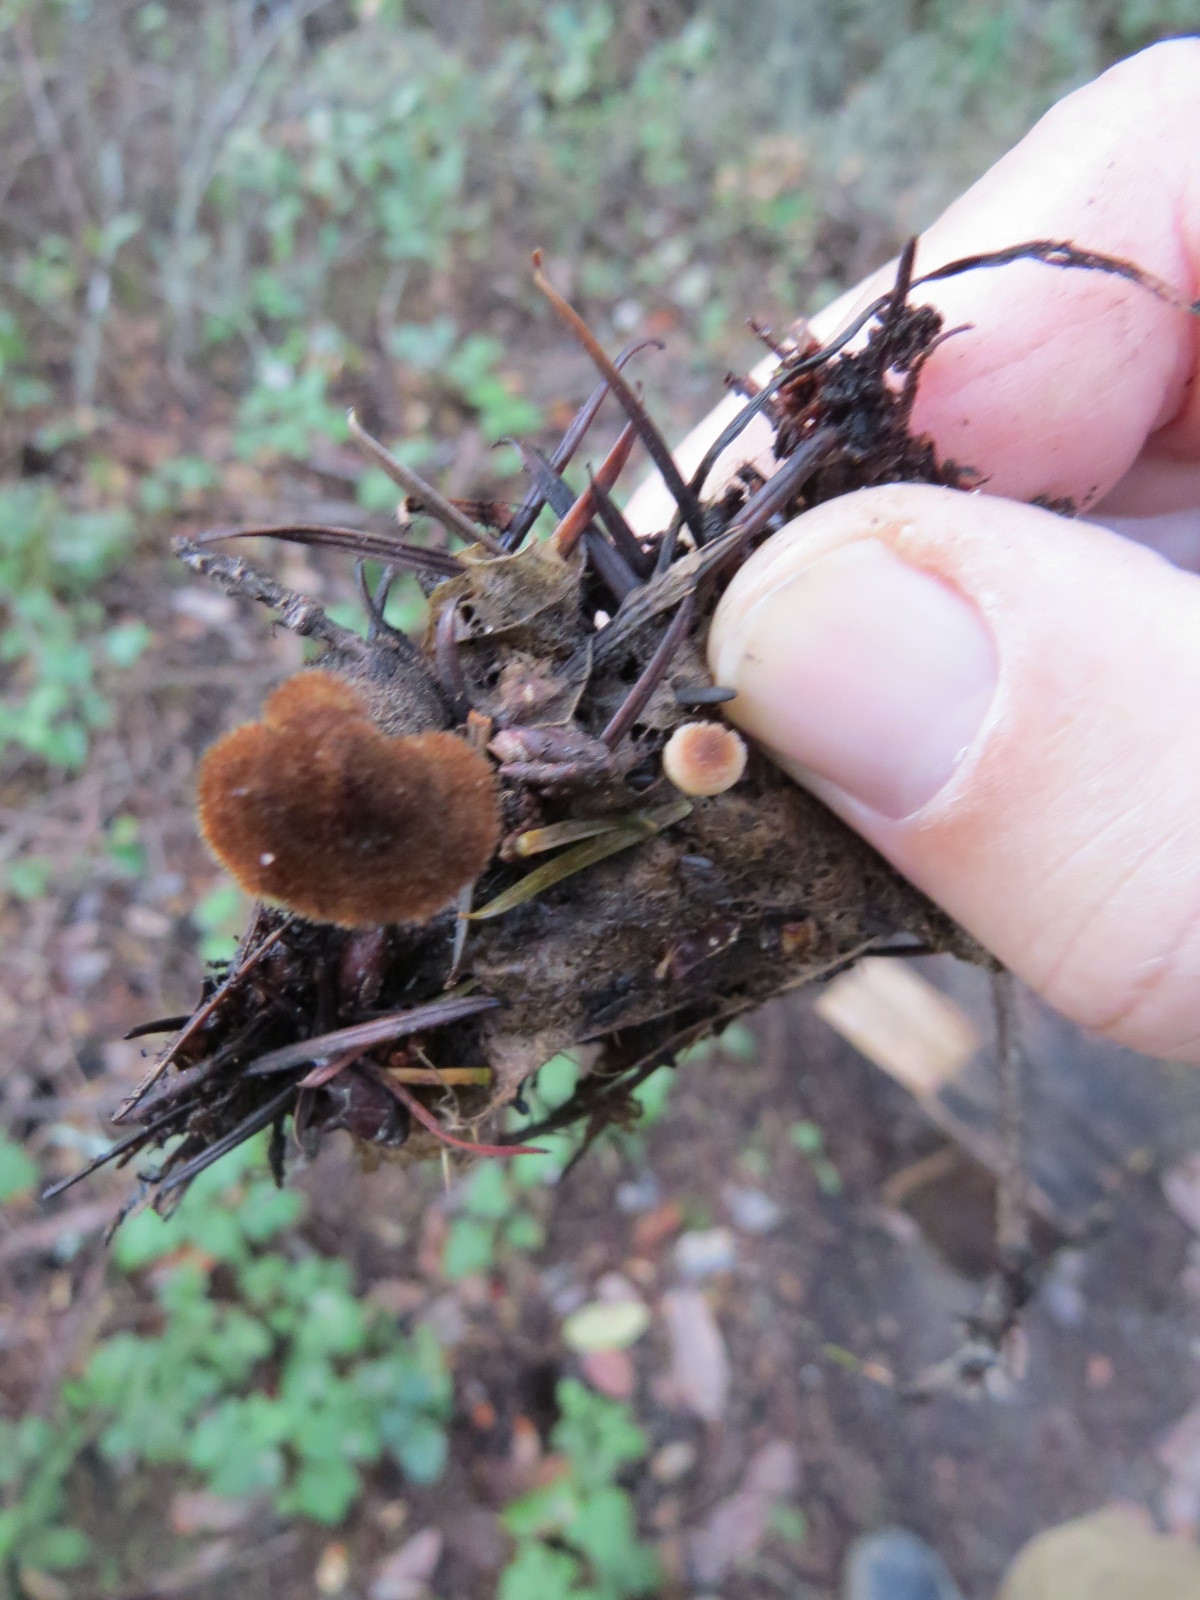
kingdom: Fungi
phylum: Basidiomycota
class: Agaricomycetes
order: Russulales
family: Auriscalpiaceae
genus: Auriscalpium
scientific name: Auriscalpium vulgare
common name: Earpick fungus
